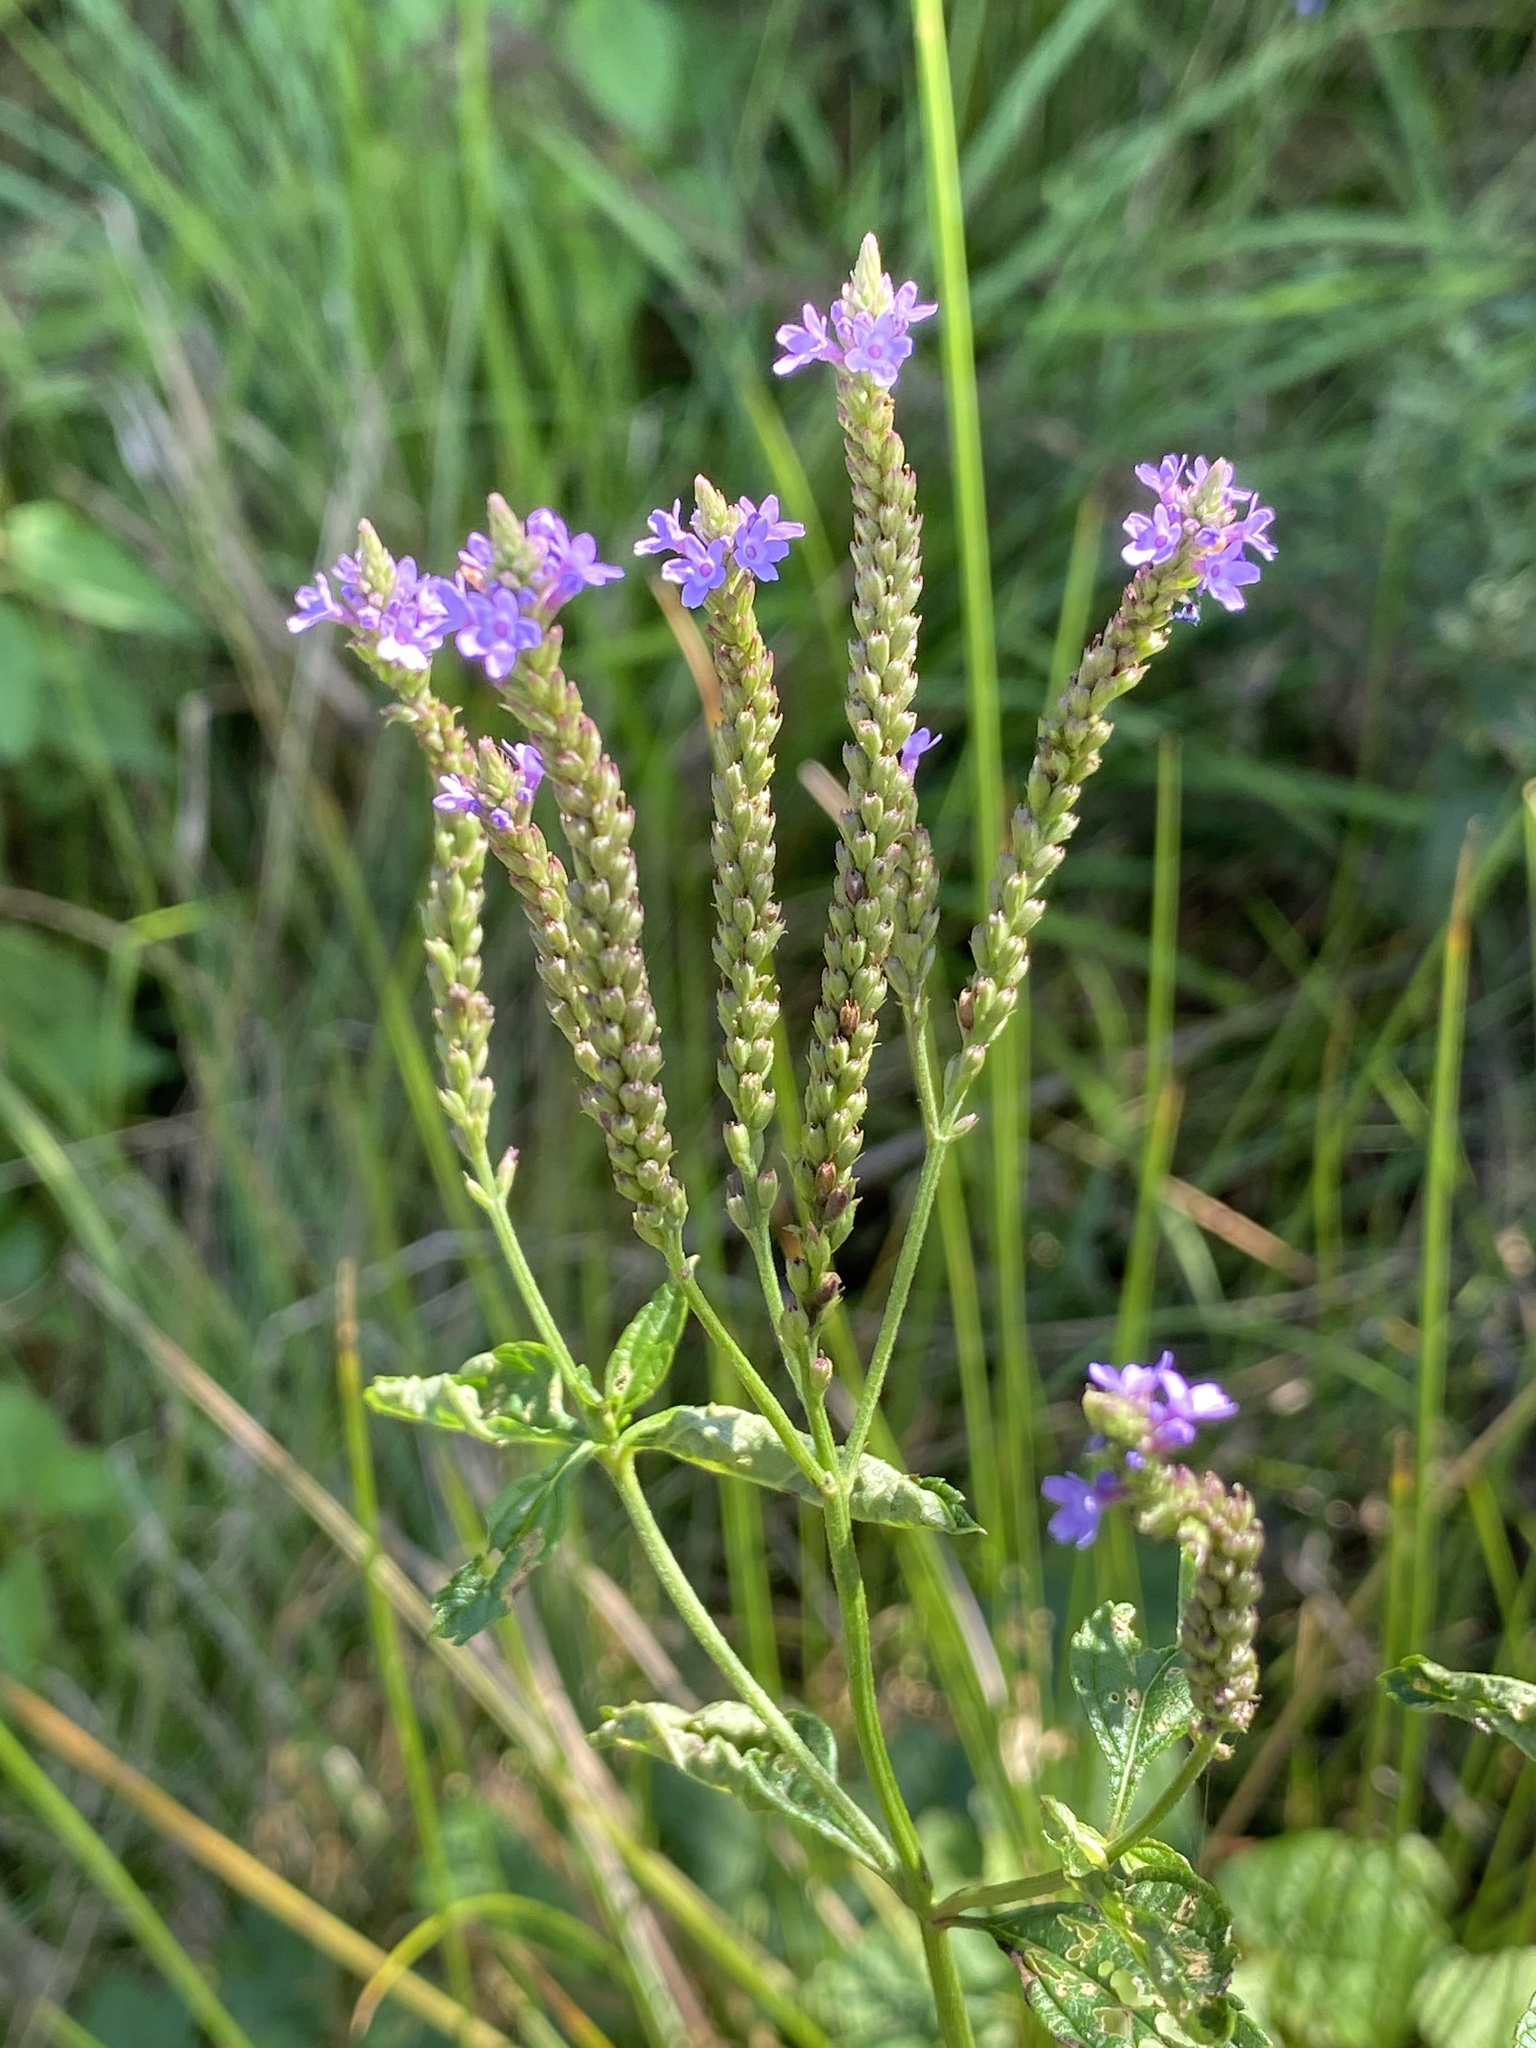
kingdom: Plantae
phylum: Tracheophyta
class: Magnoliopsida
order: Lamiales
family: Verbenaceae
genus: Verbena
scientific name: Verbena hastata
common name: American blue vervain
